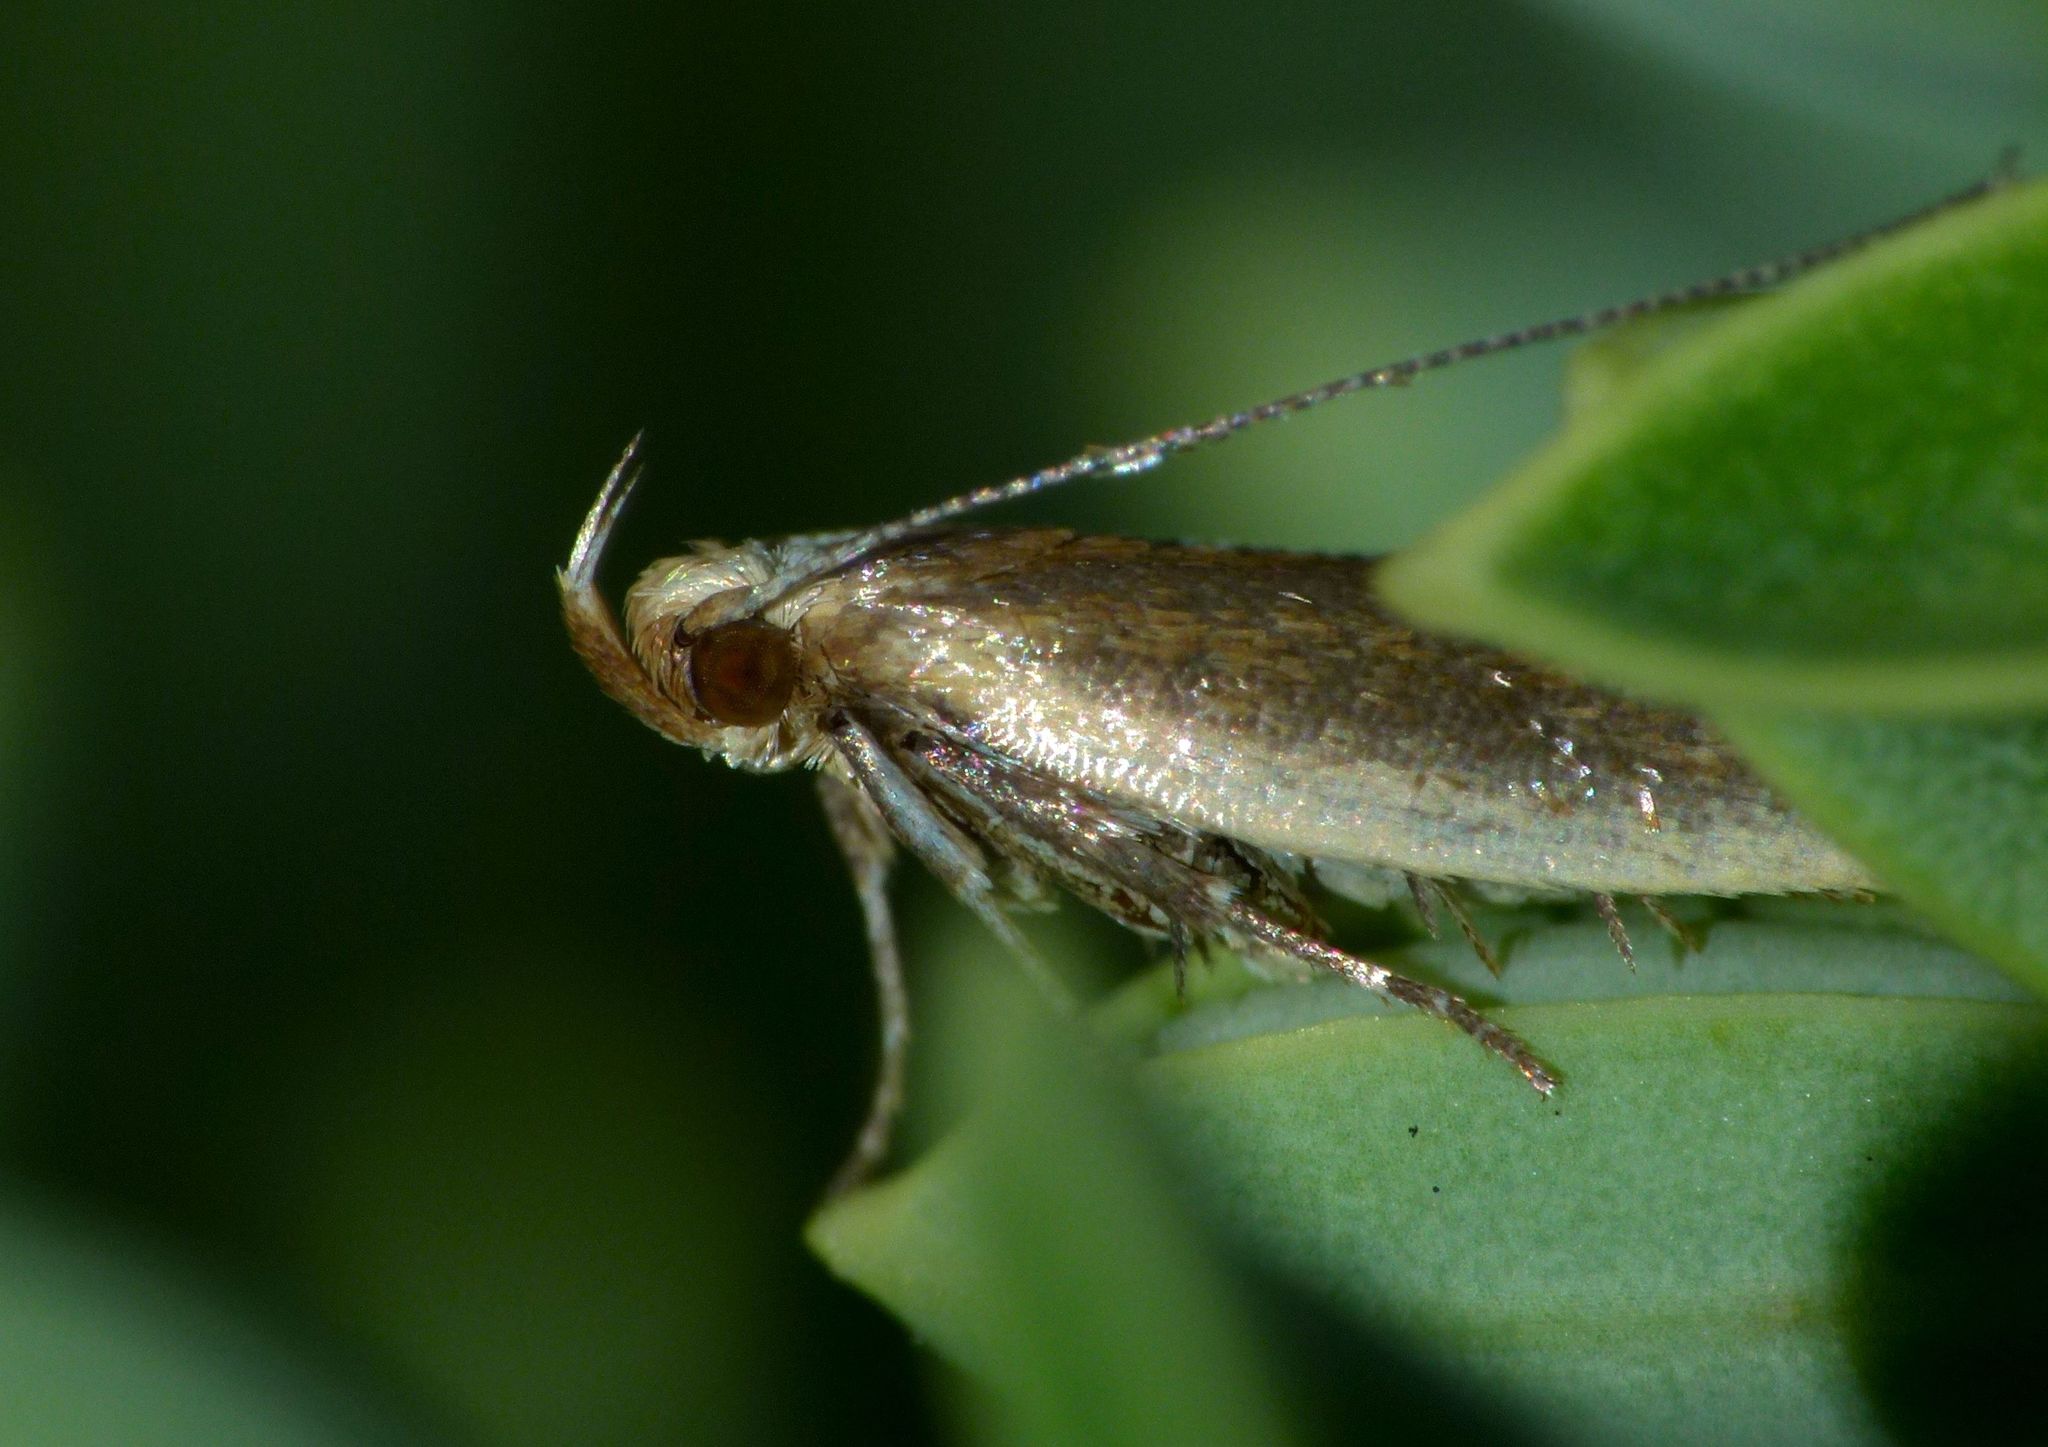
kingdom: Animalia
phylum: Arthropoda
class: Insecta
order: Lepidoptera
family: Oecophoridae
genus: Gymnobathra
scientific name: Gymnobathra parca
